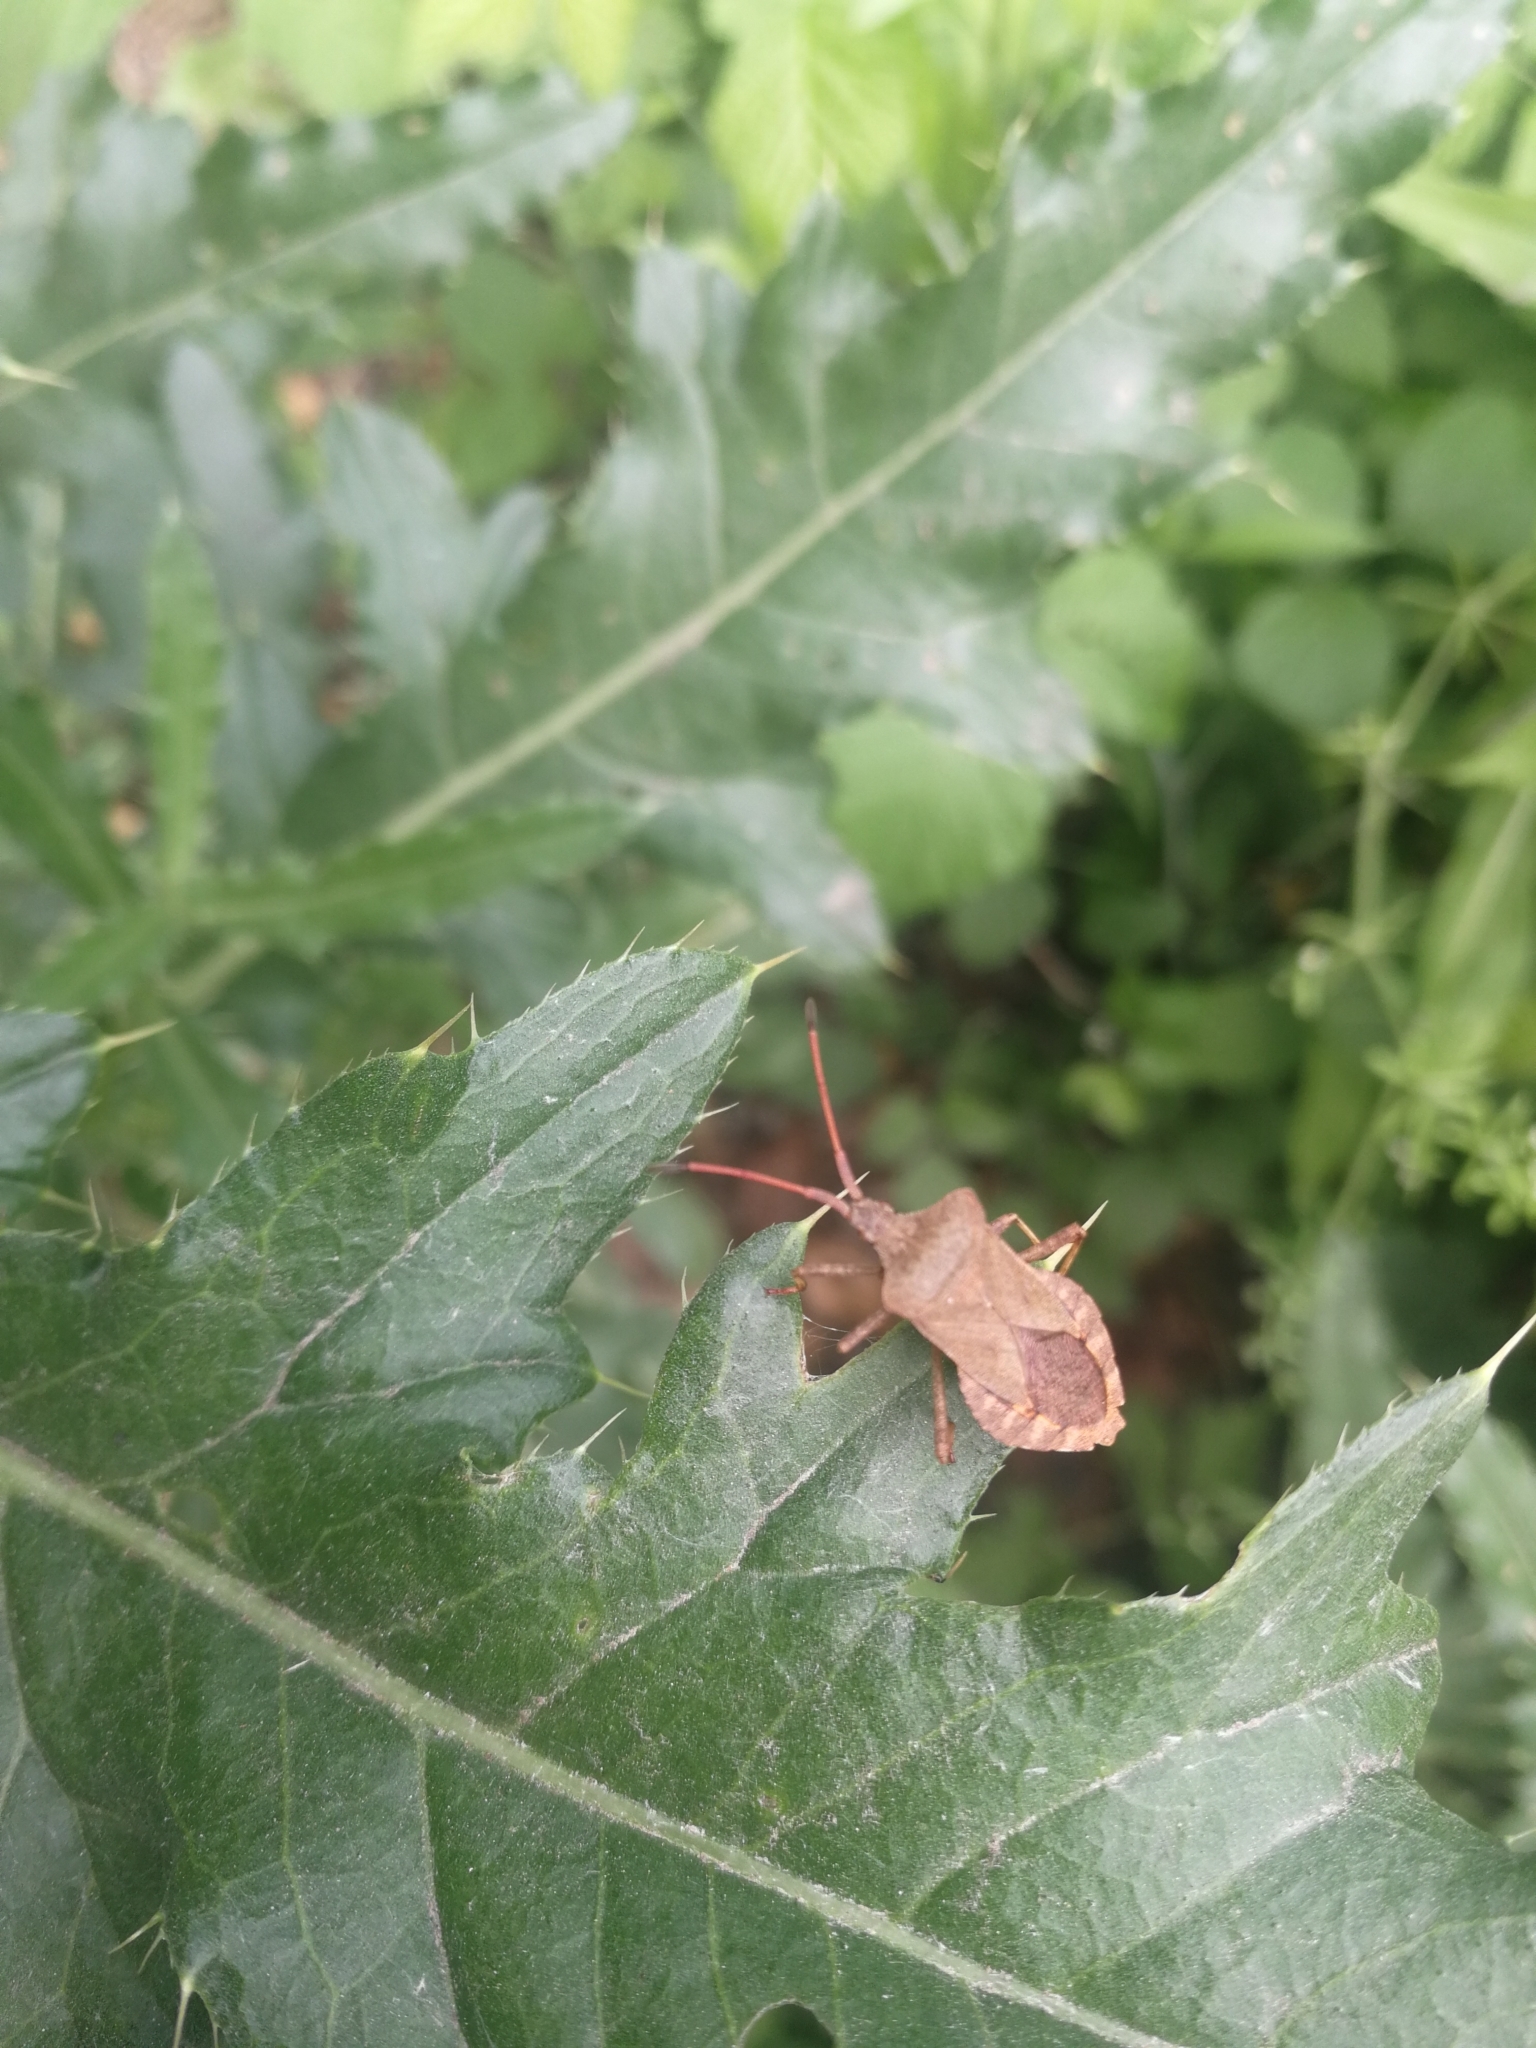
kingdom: Animalia
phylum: Arthropoda
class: Insecta
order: Hemiptera
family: Coreidae
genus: Coreus
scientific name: Coreus marginatus
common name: Dock bug
